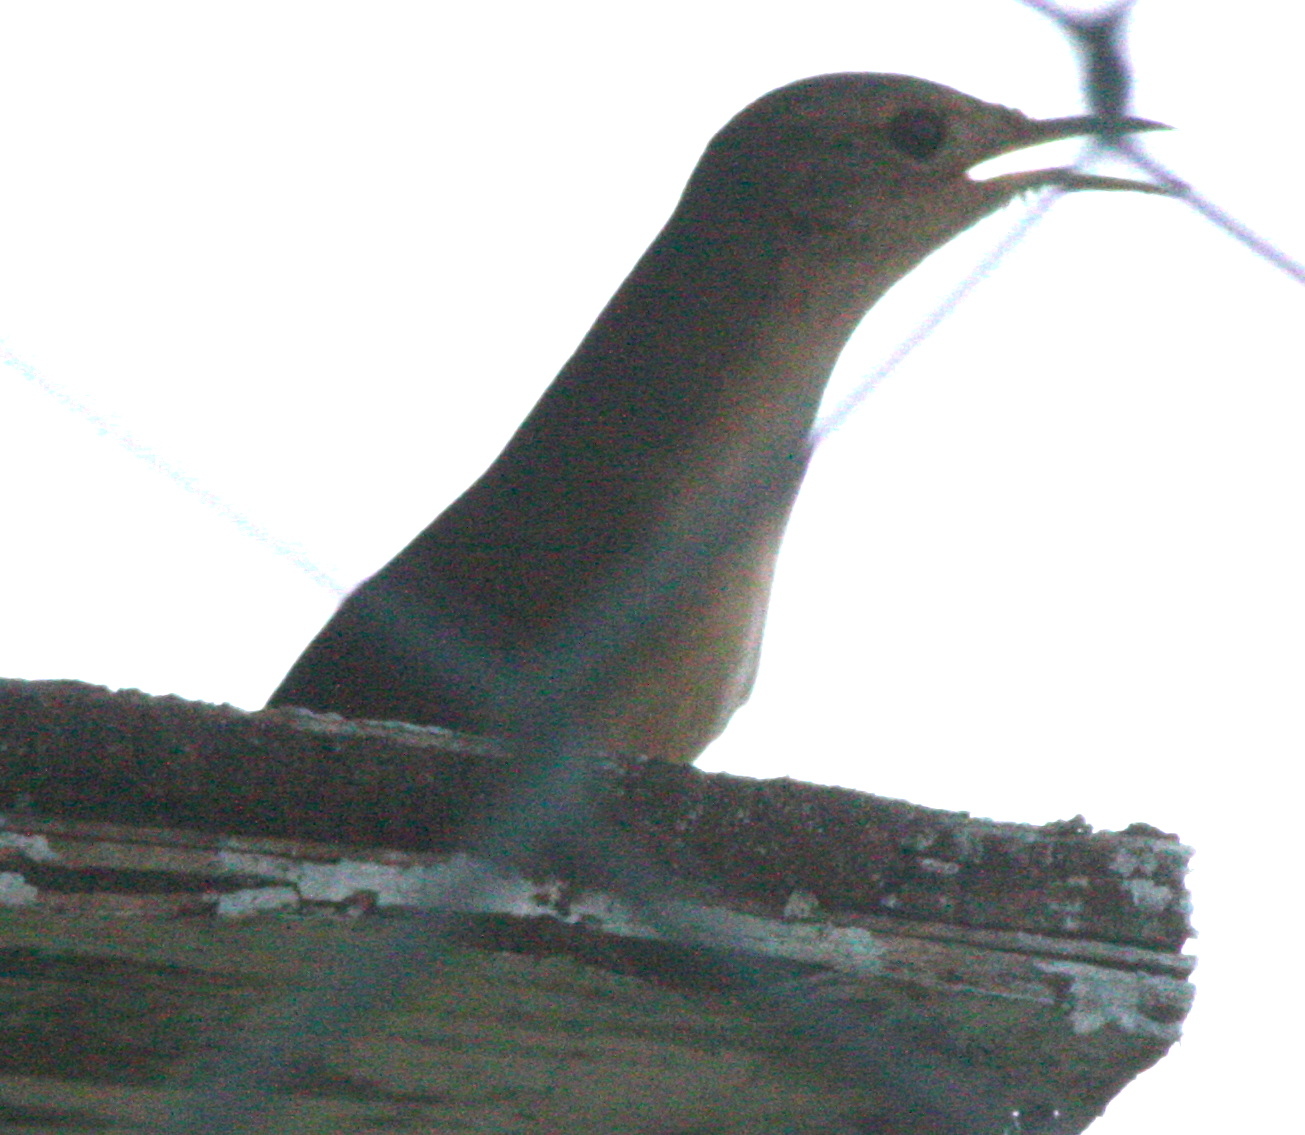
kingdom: Animalia
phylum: Chordata
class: Aves
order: Passeriformes
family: Troglodytidae
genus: Troglodytes
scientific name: Troglodytes aedon
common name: House wren
